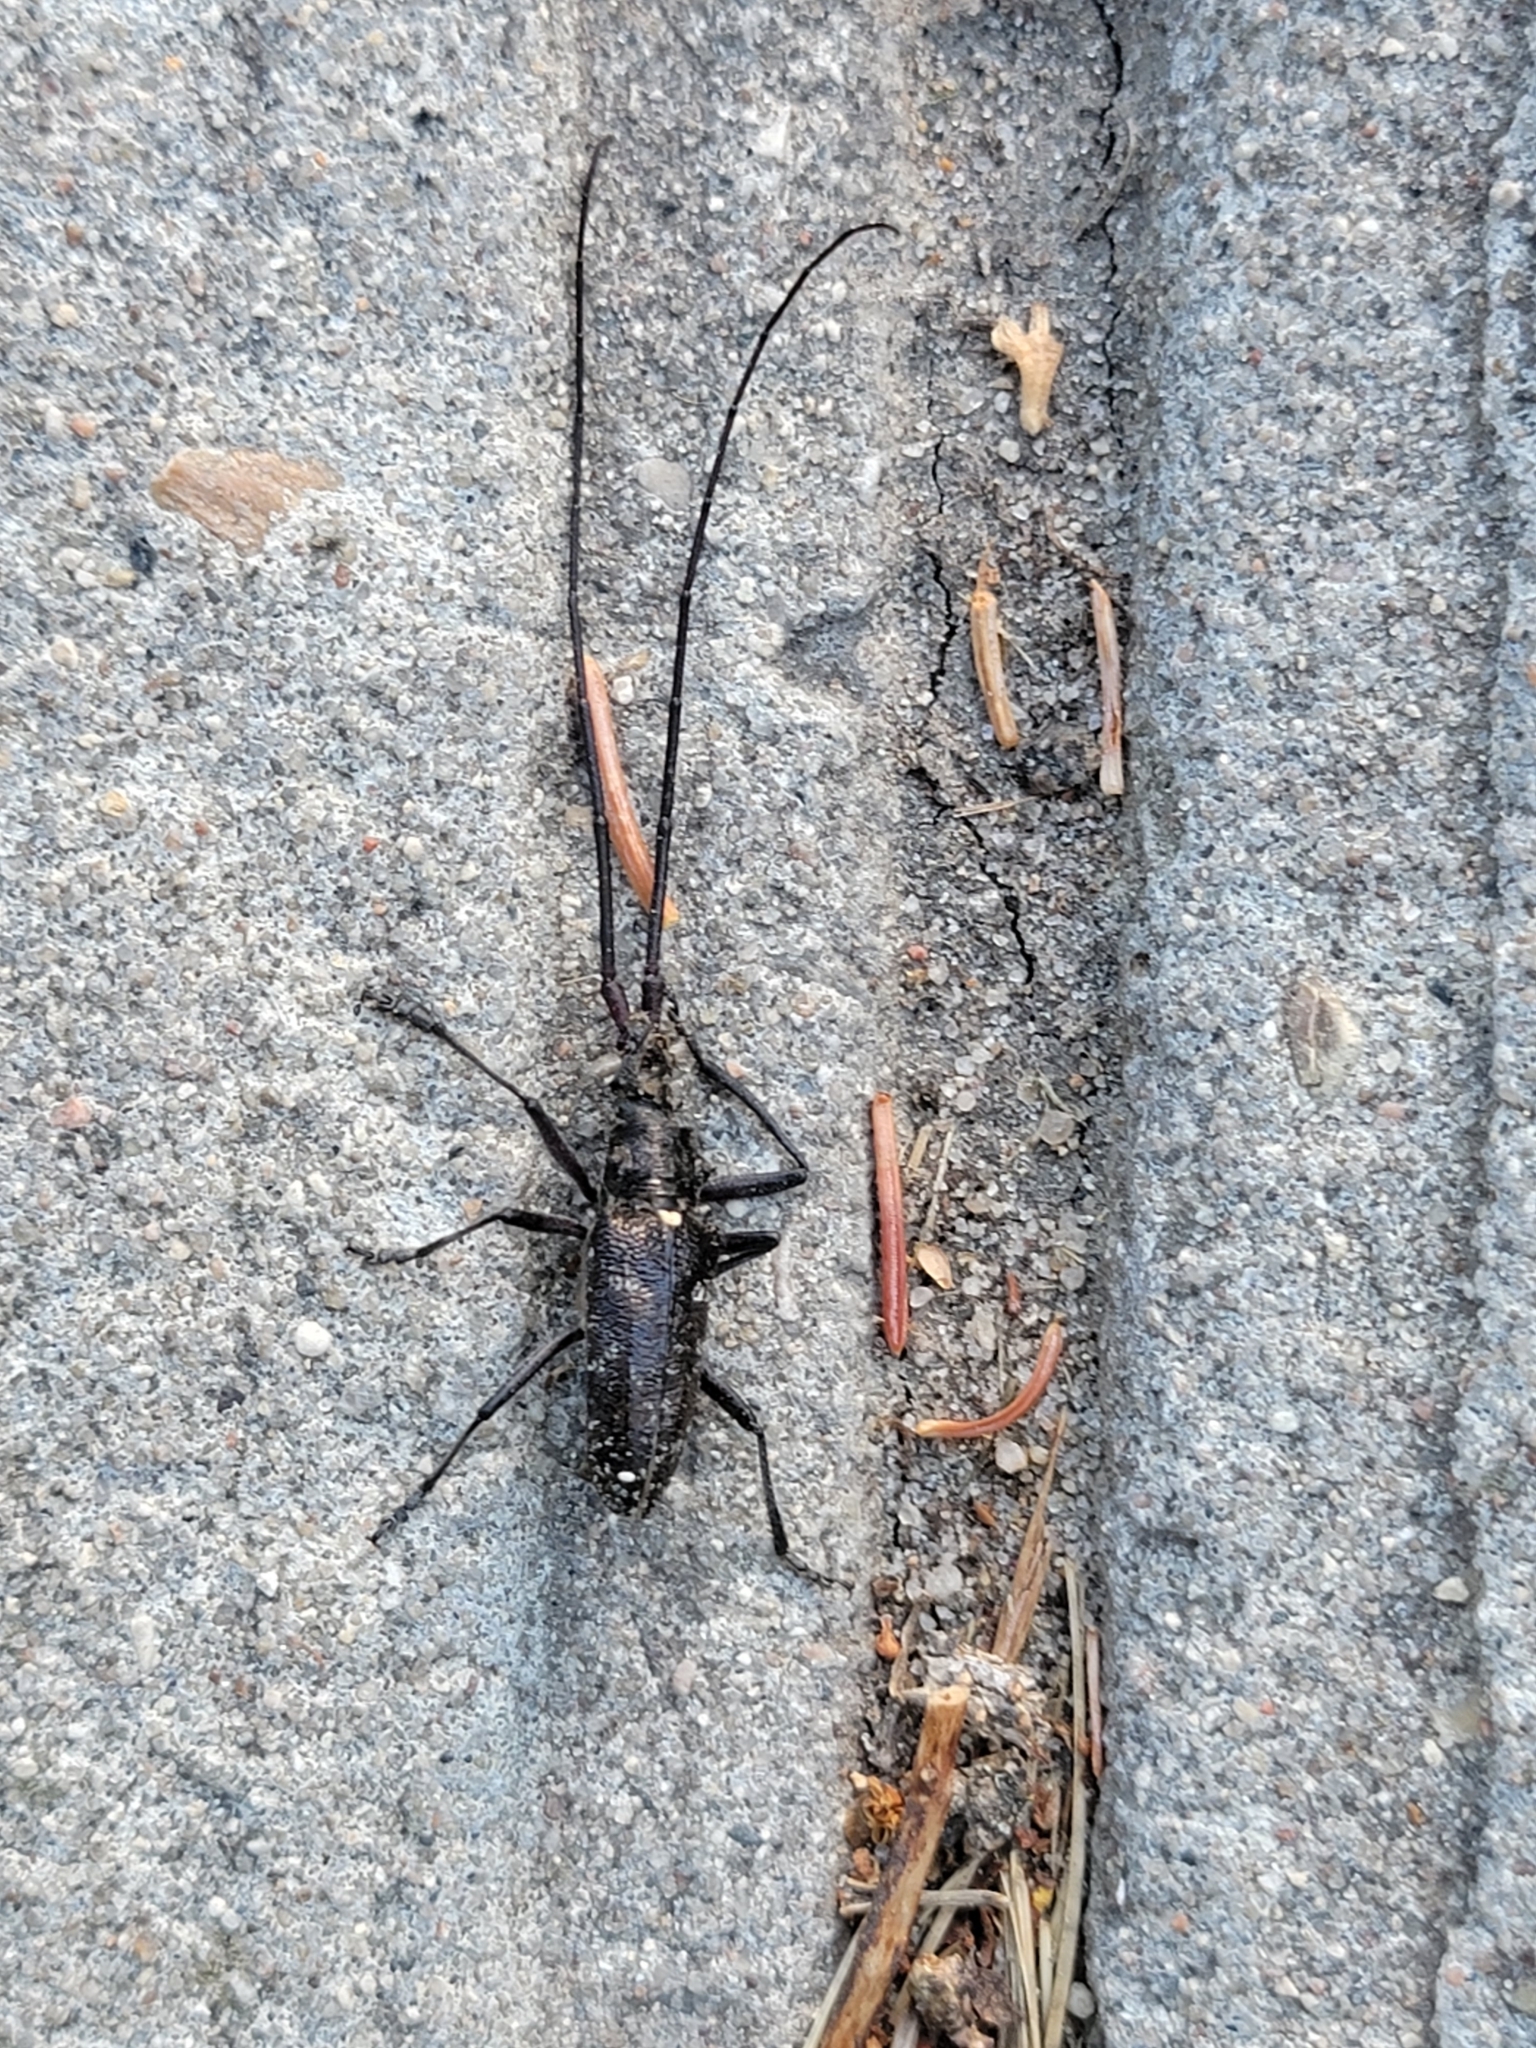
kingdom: Animalia
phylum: Arthropoda
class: Insecta
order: Coleoptera
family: Cerambycidae
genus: Monochamus
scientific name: Monochamus scutellatus
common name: White-spotted sawyer beetle
